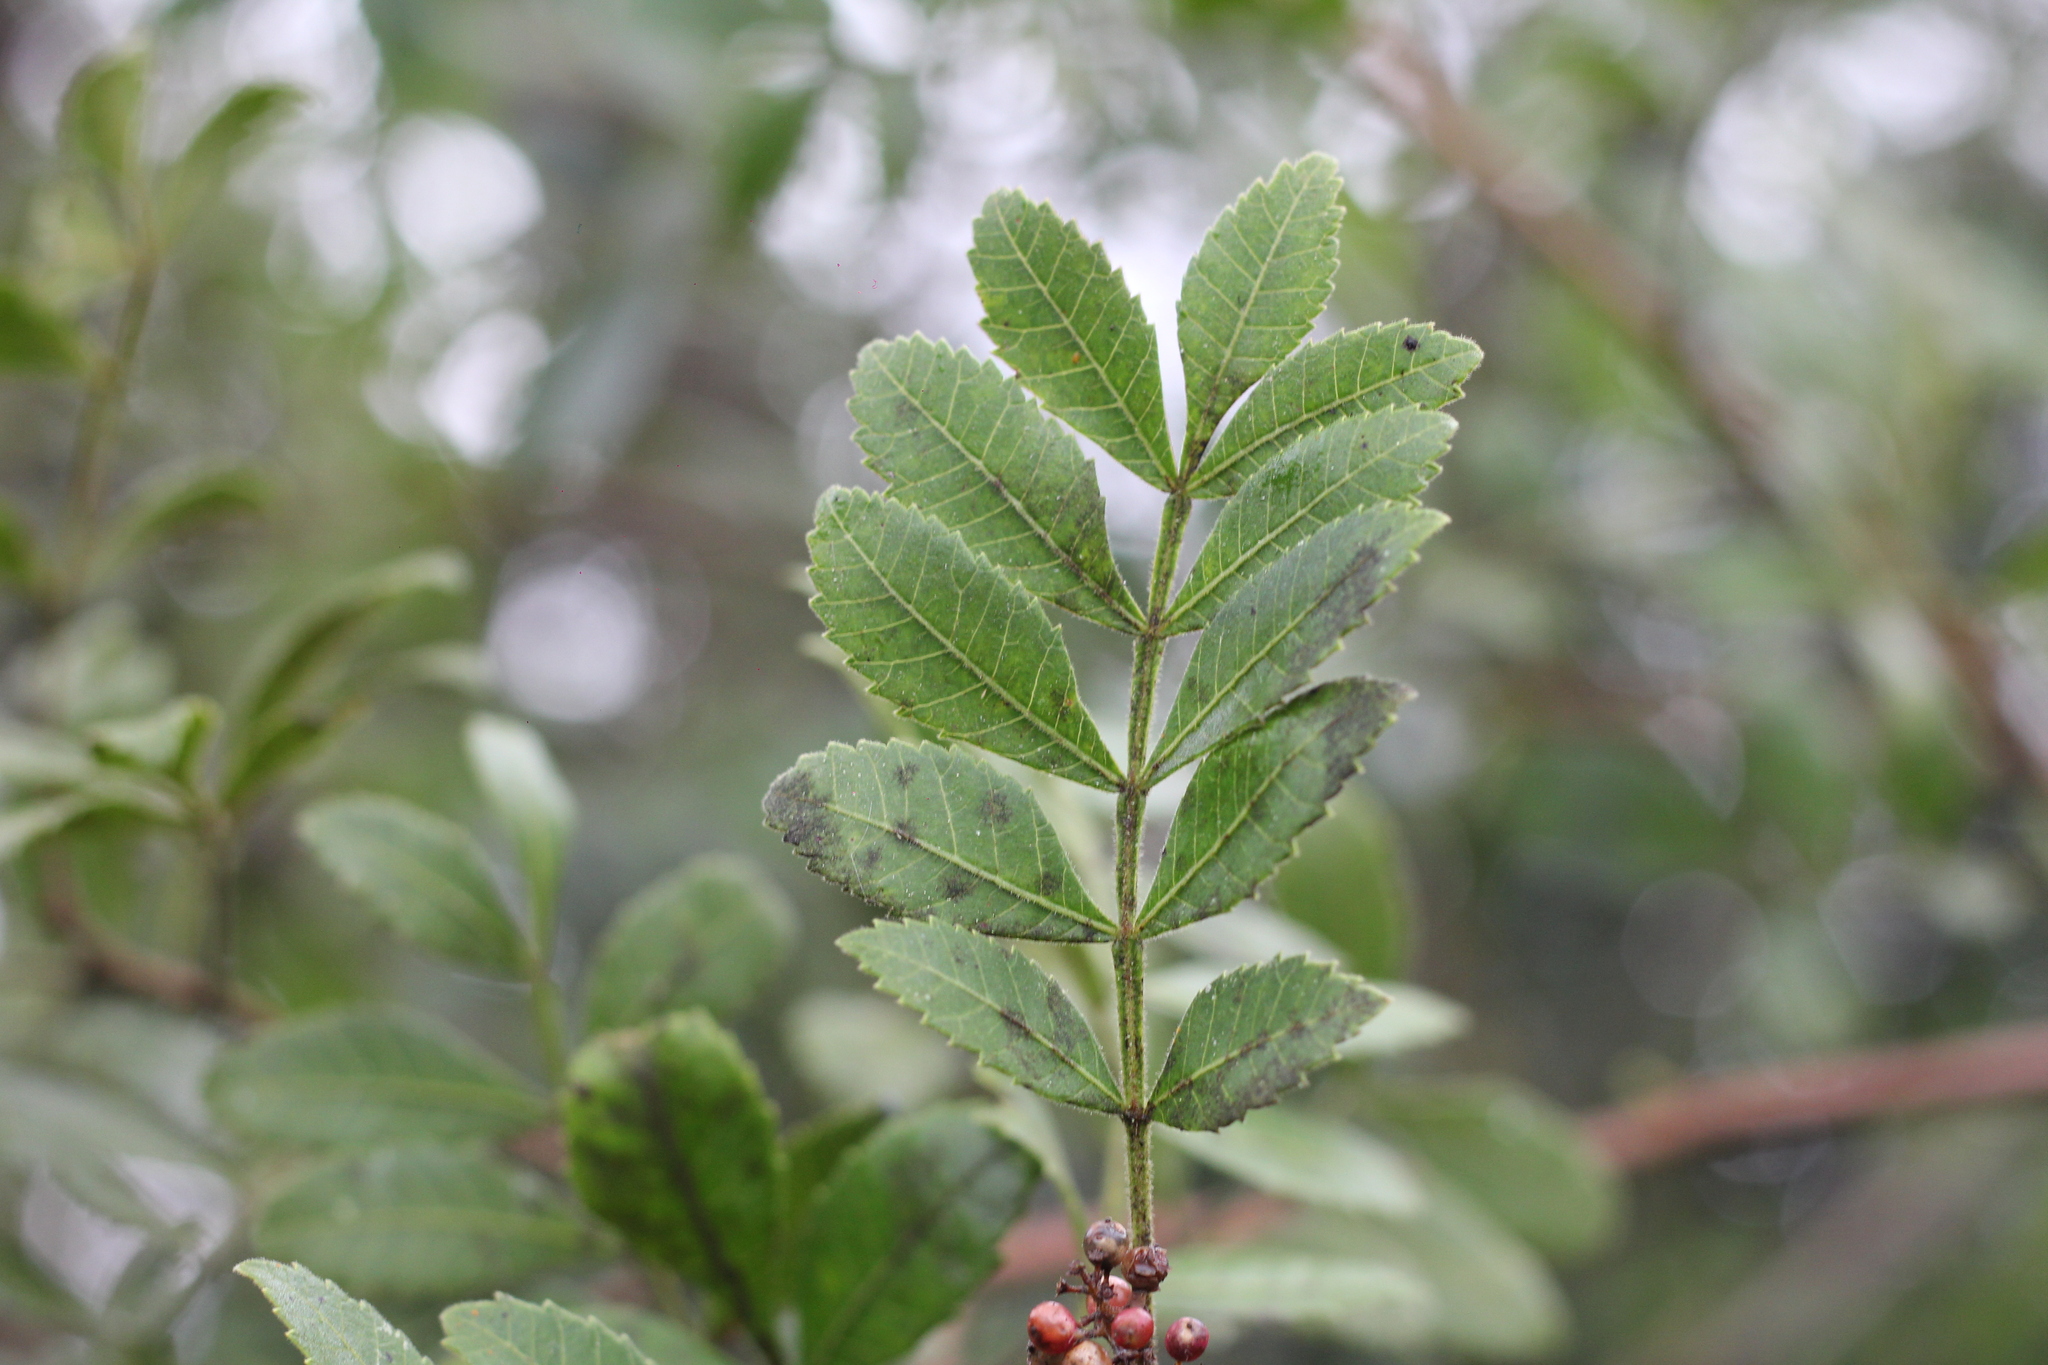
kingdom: Plantae
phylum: Tracheophyta
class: Magnoliopsida
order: Sapindales
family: Anacardiaceae
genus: Schinus
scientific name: Schinus terebinthifolia
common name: Brazilian peppertree
